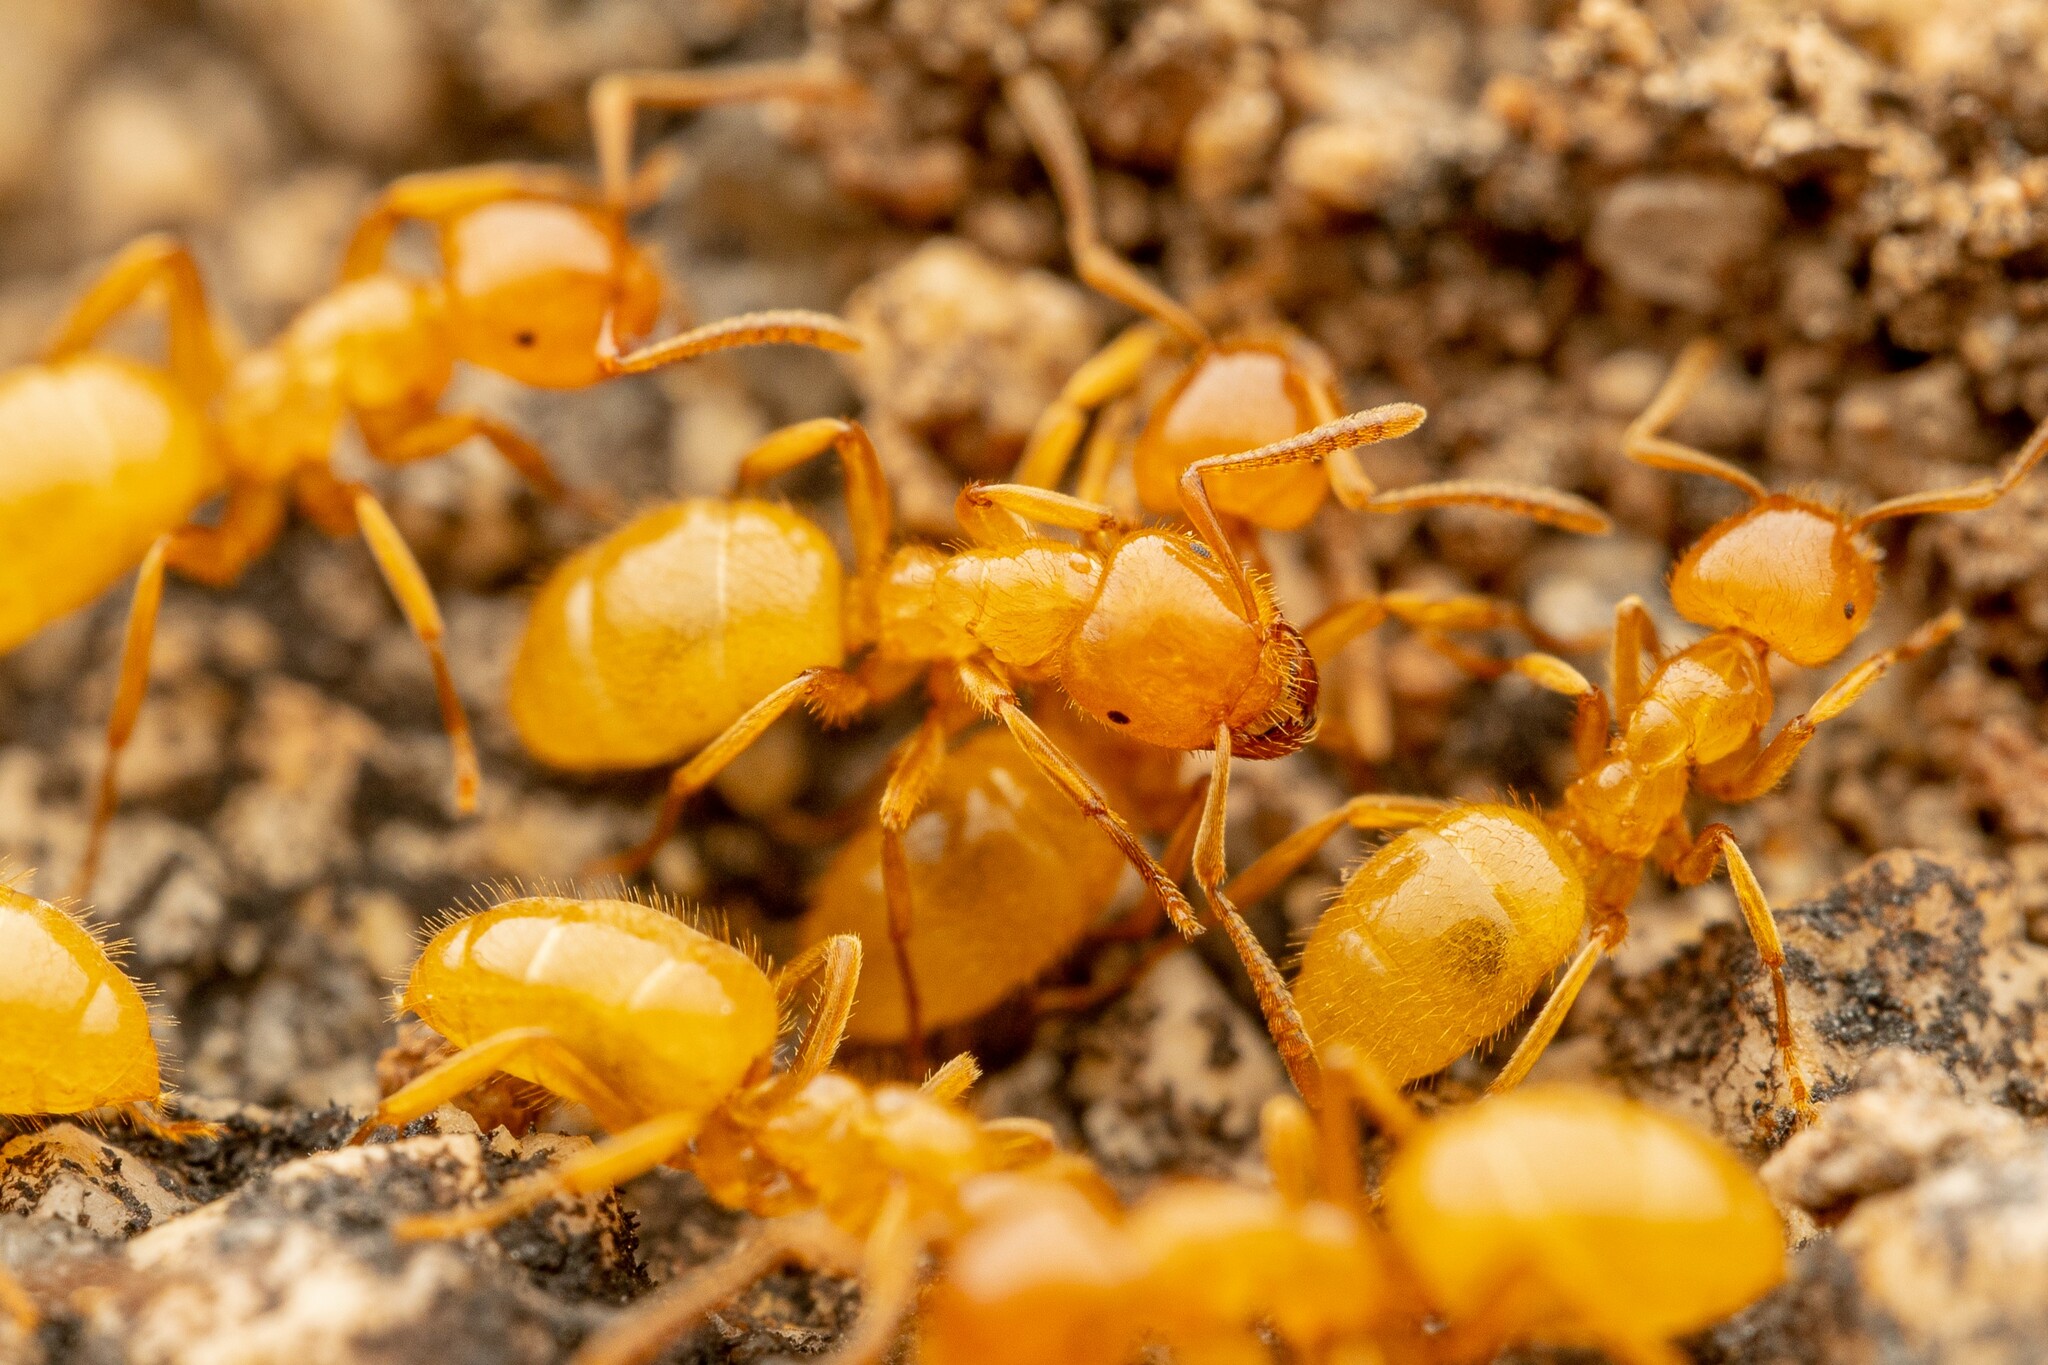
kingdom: Animalia
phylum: Arthropoda
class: Insecta
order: Hymenoptera
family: Formicidae
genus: Acanthomyops
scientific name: Acanthomyops latipes
